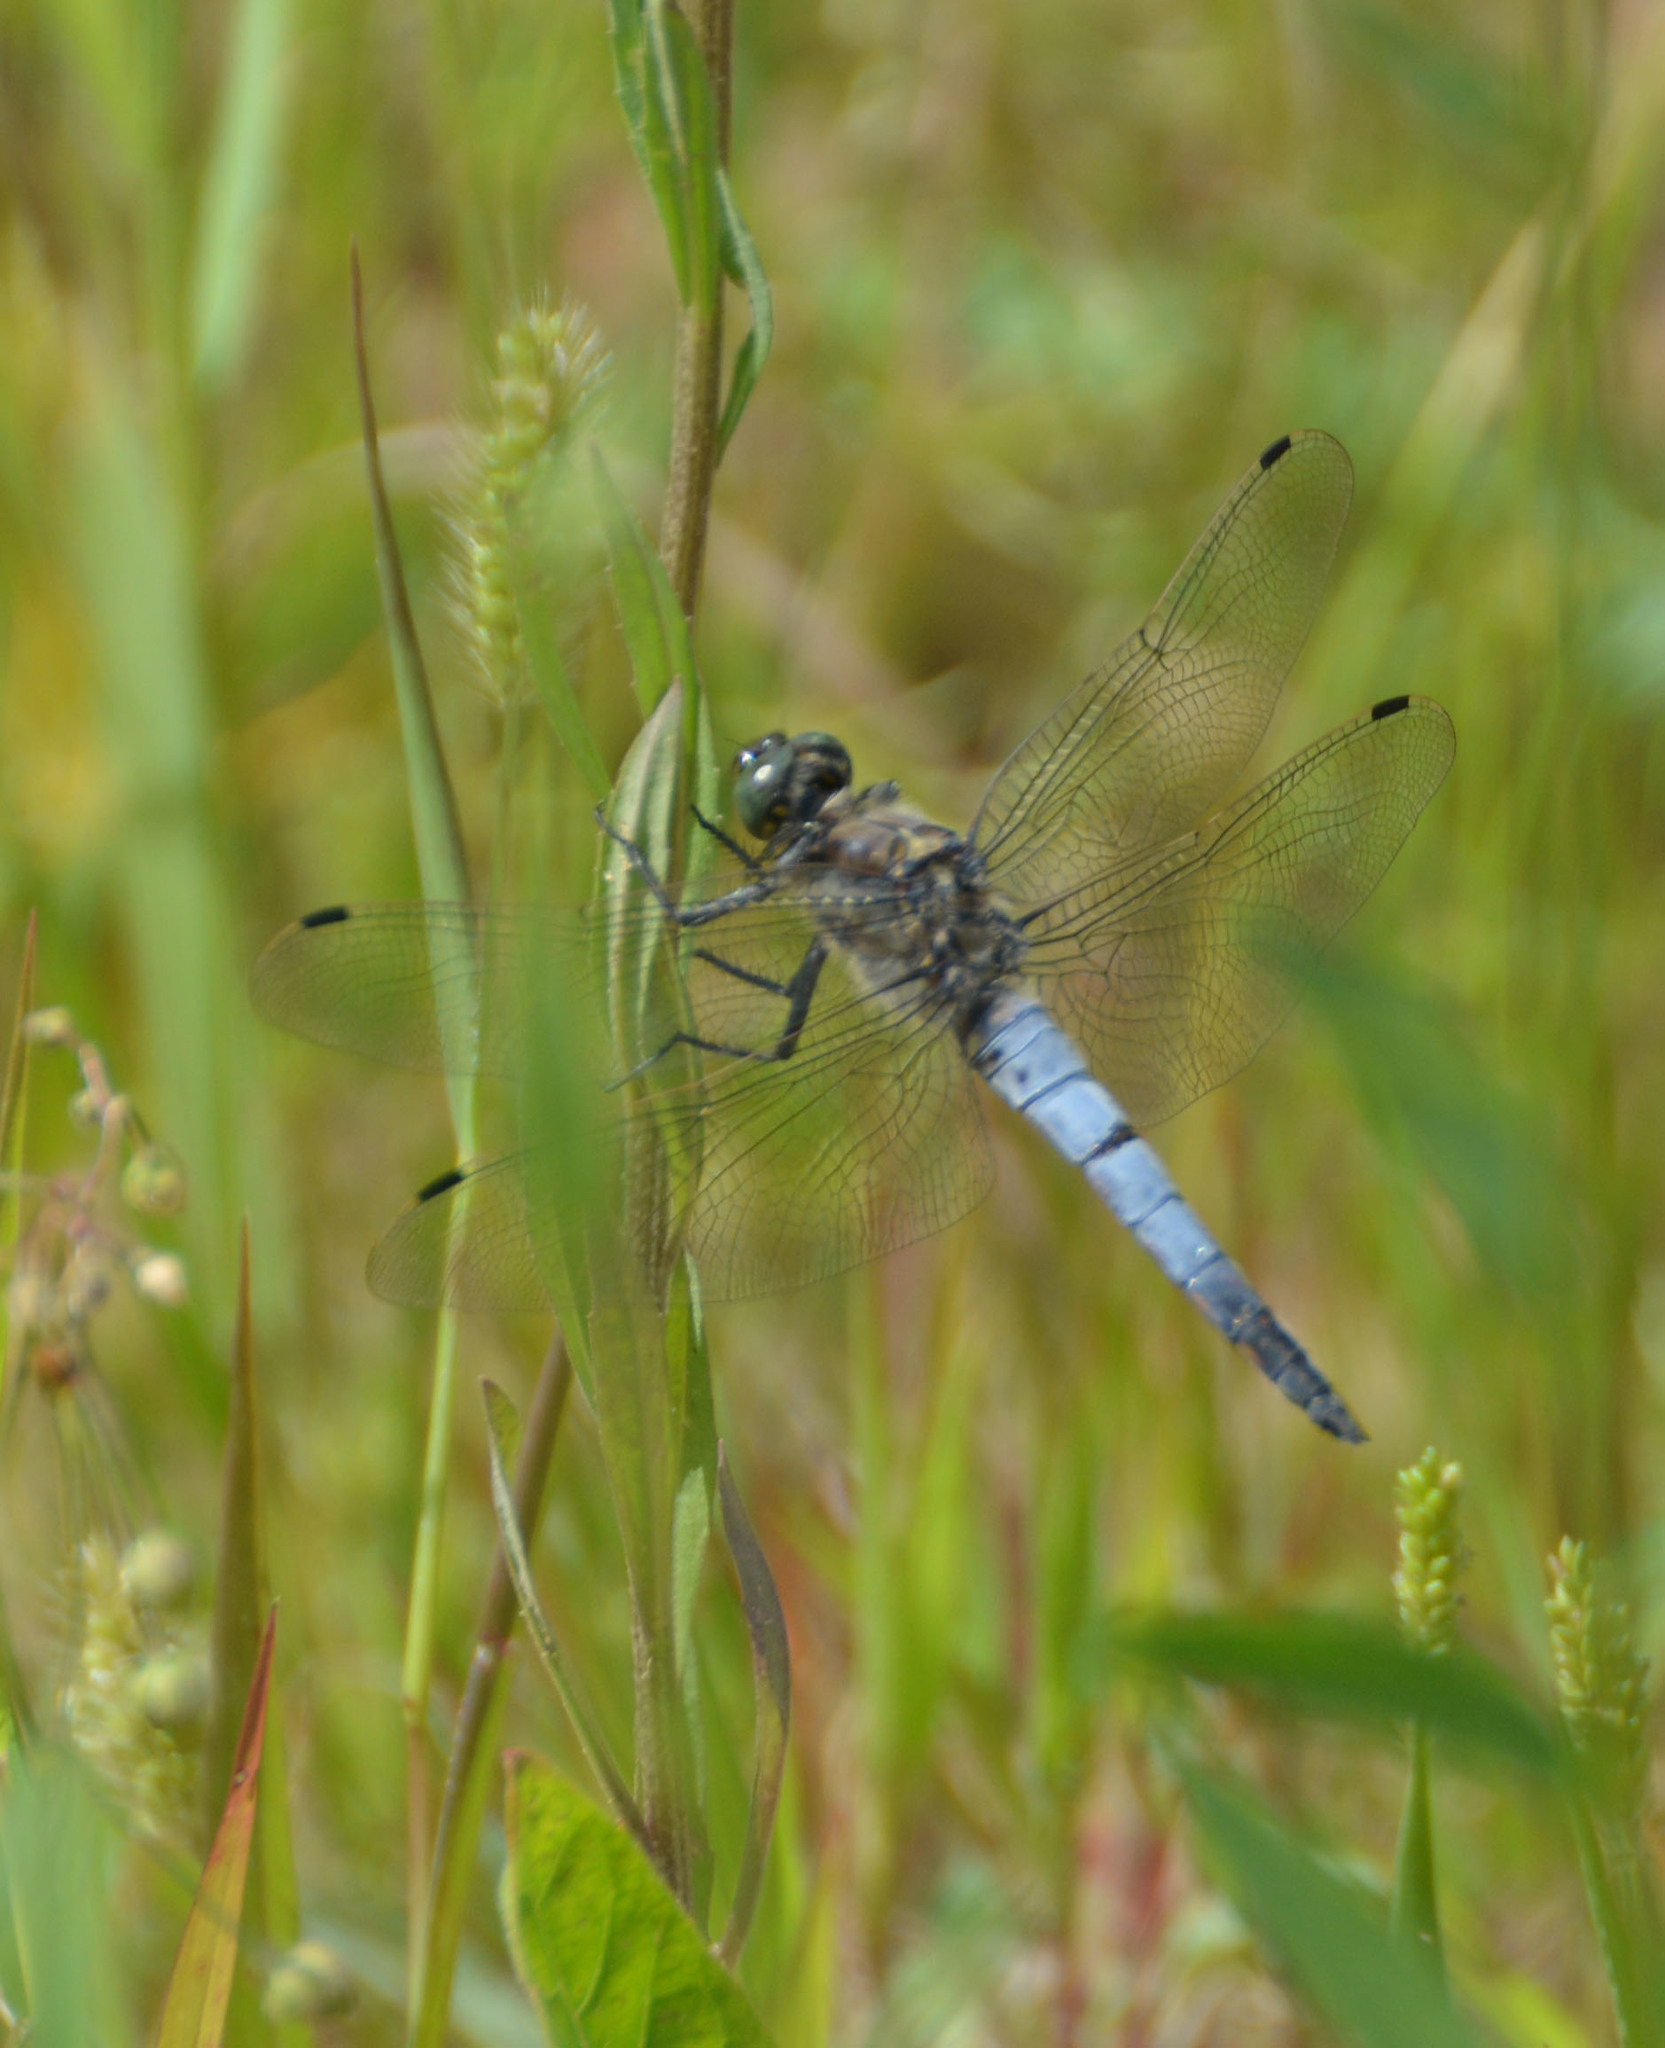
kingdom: Animalia
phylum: Arthropoda
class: Insecta
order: Odonata
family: Libellulidae
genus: Orthetrum
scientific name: Orthetrum cancellatum
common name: Black-tailed skimmer
